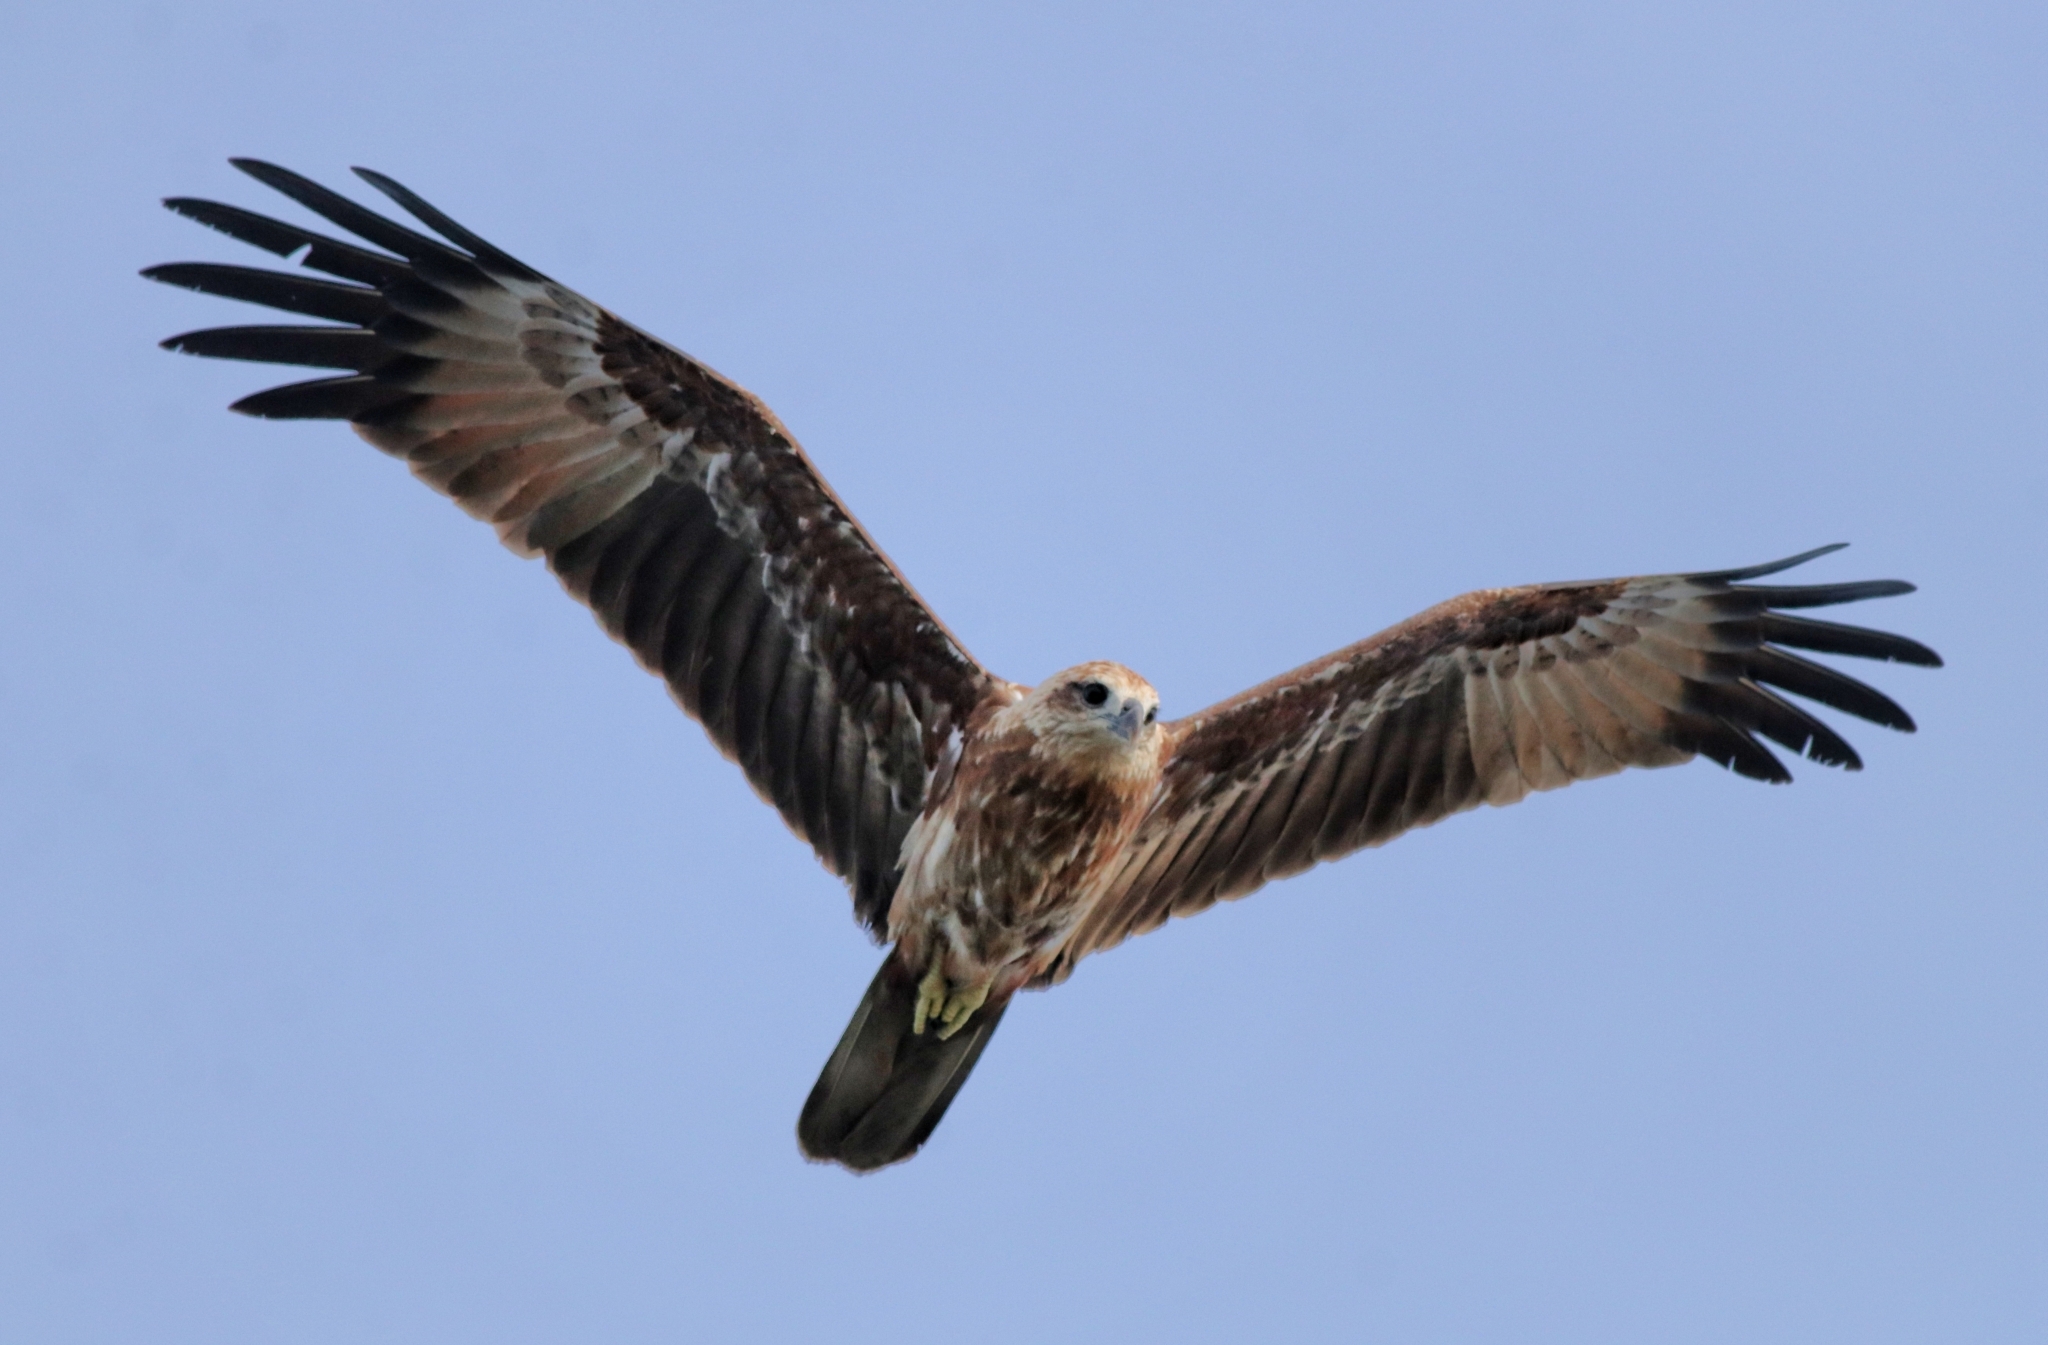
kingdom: Animalia
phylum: Chordata
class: Aves
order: Accipitriformes
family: Accipitridae
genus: Haliastur
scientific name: Haliastur indus
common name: Brahminy kite
